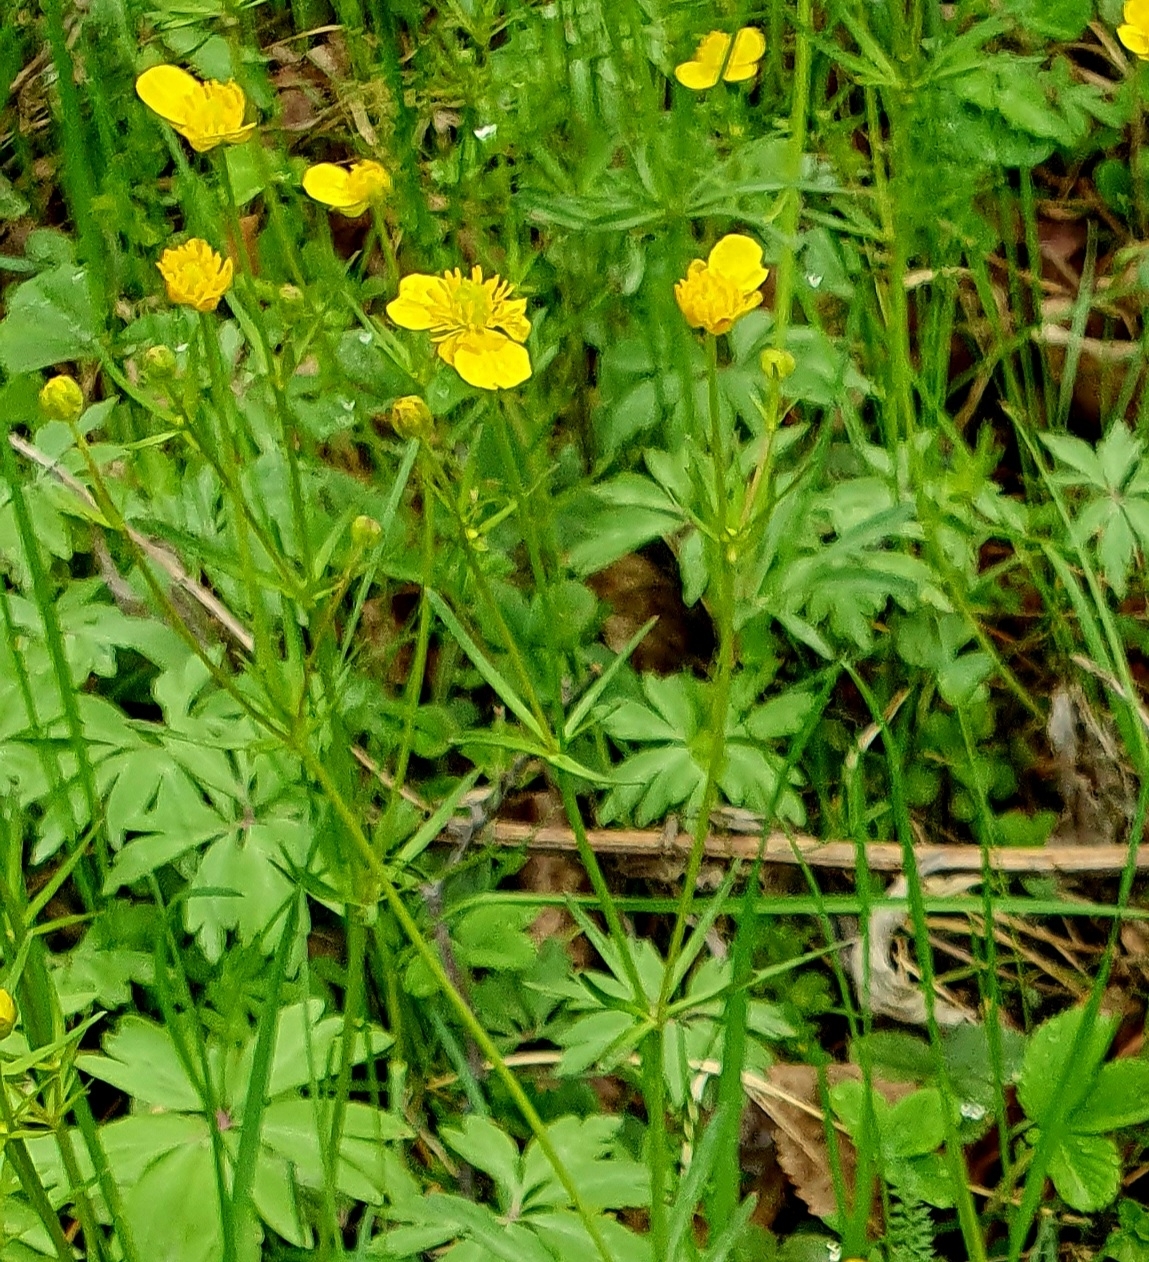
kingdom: Plantae
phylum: Tracheophyta
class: Magnoliopsida
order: Ranunculales
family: Ranunculaceae
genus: Ranunculus
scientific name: Ranunculus auricomus
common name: Goldilocks buttercup
